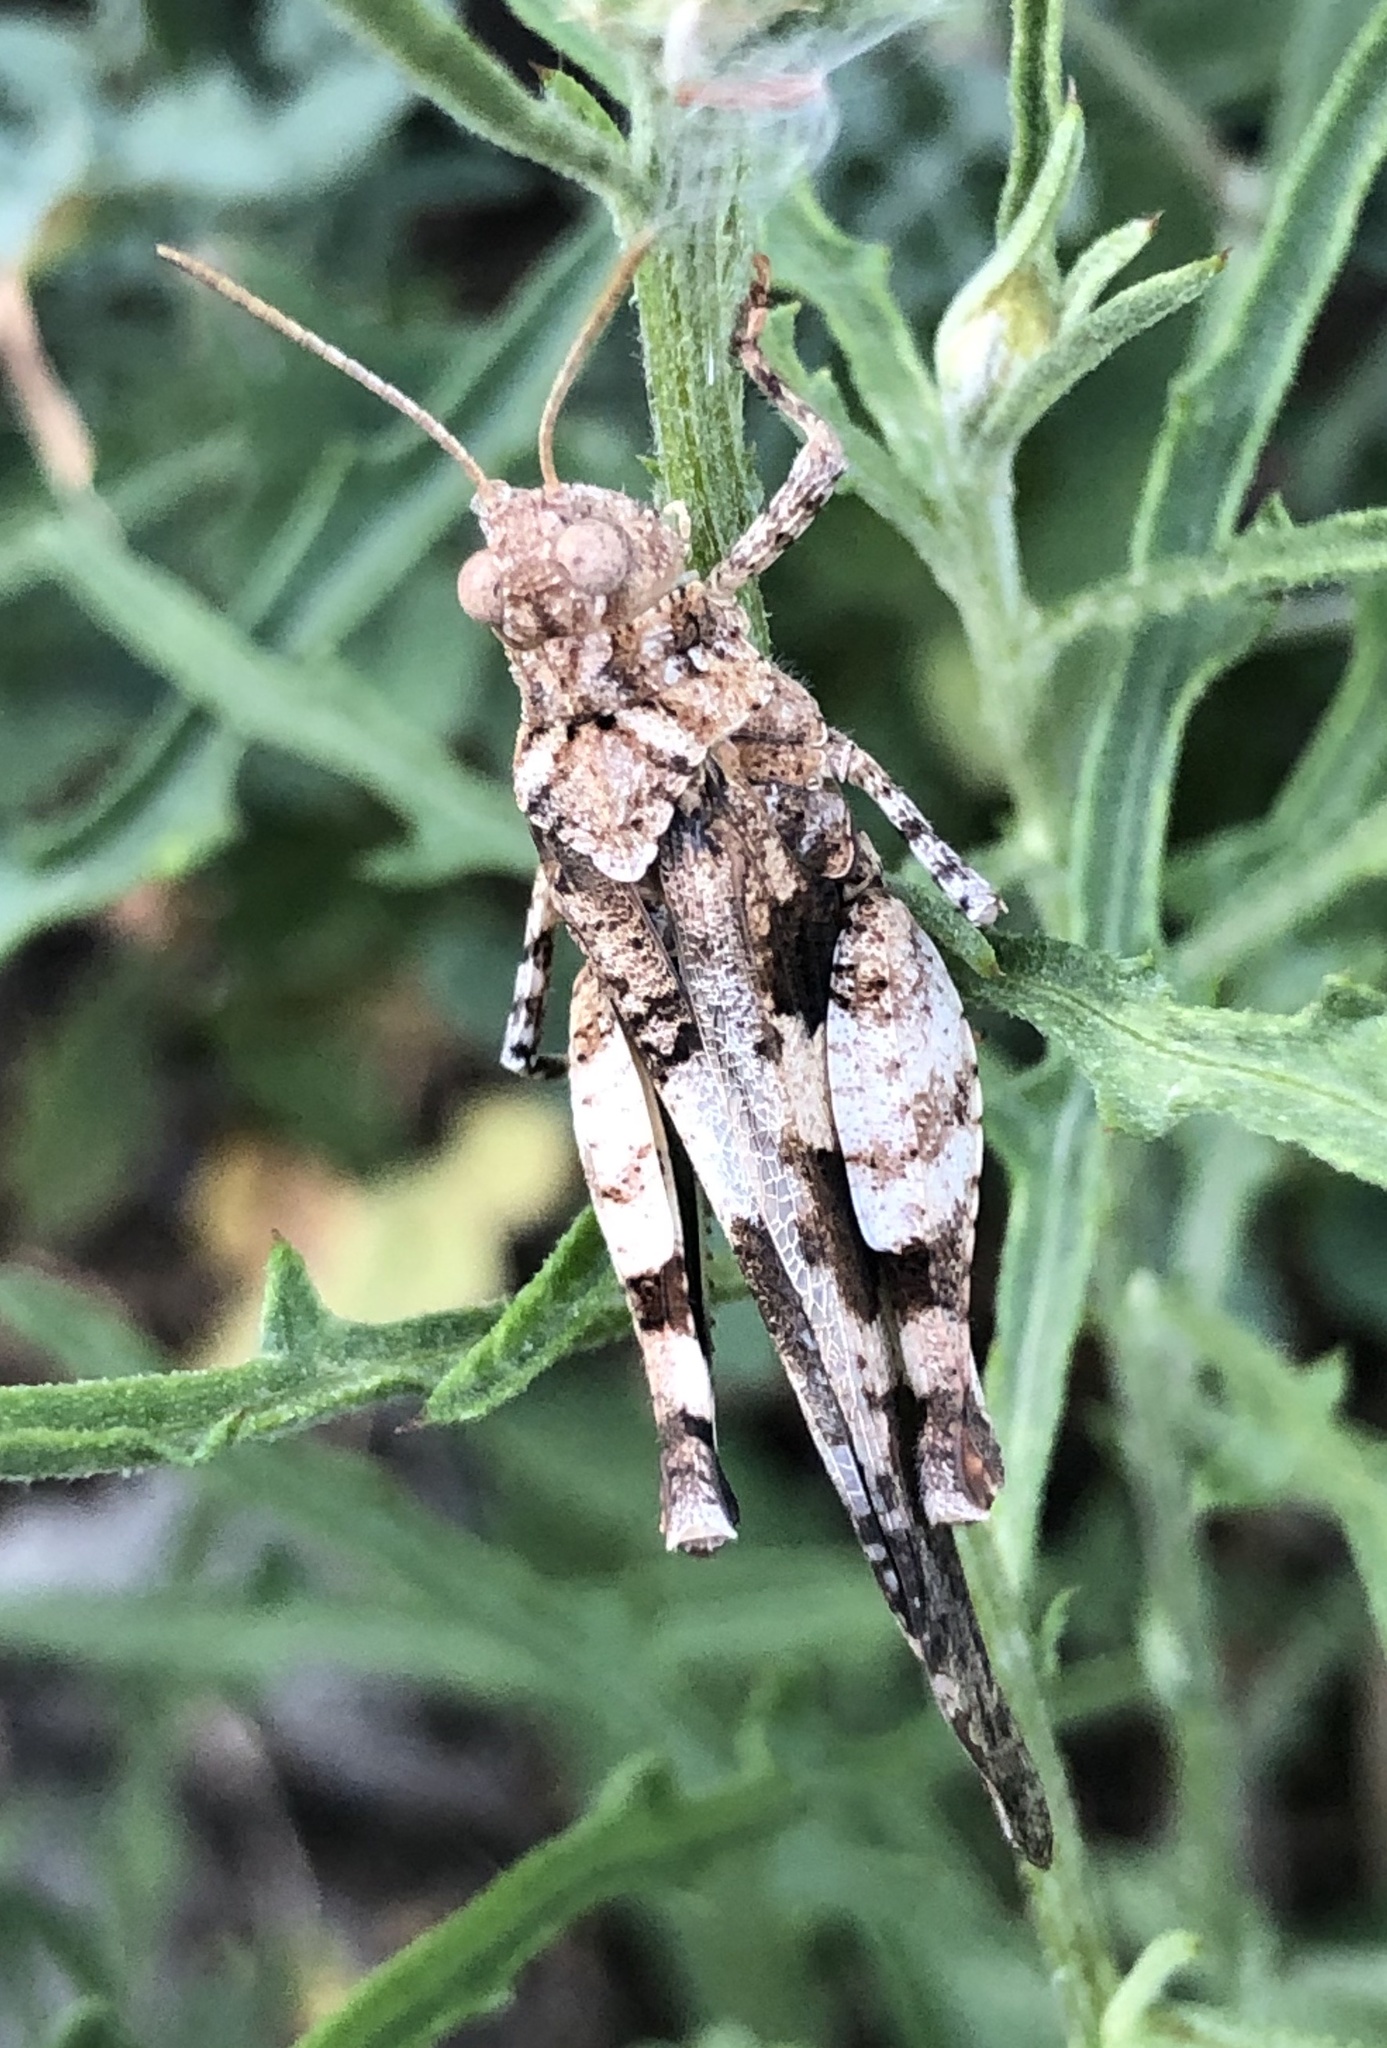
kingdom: Animalia
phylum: Arthropoda
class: Insecta
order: Orthoptera
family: Acrididae
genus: Oedipoda
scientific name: Oedipoda caerulescens
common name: Blue-winged grasshopper
